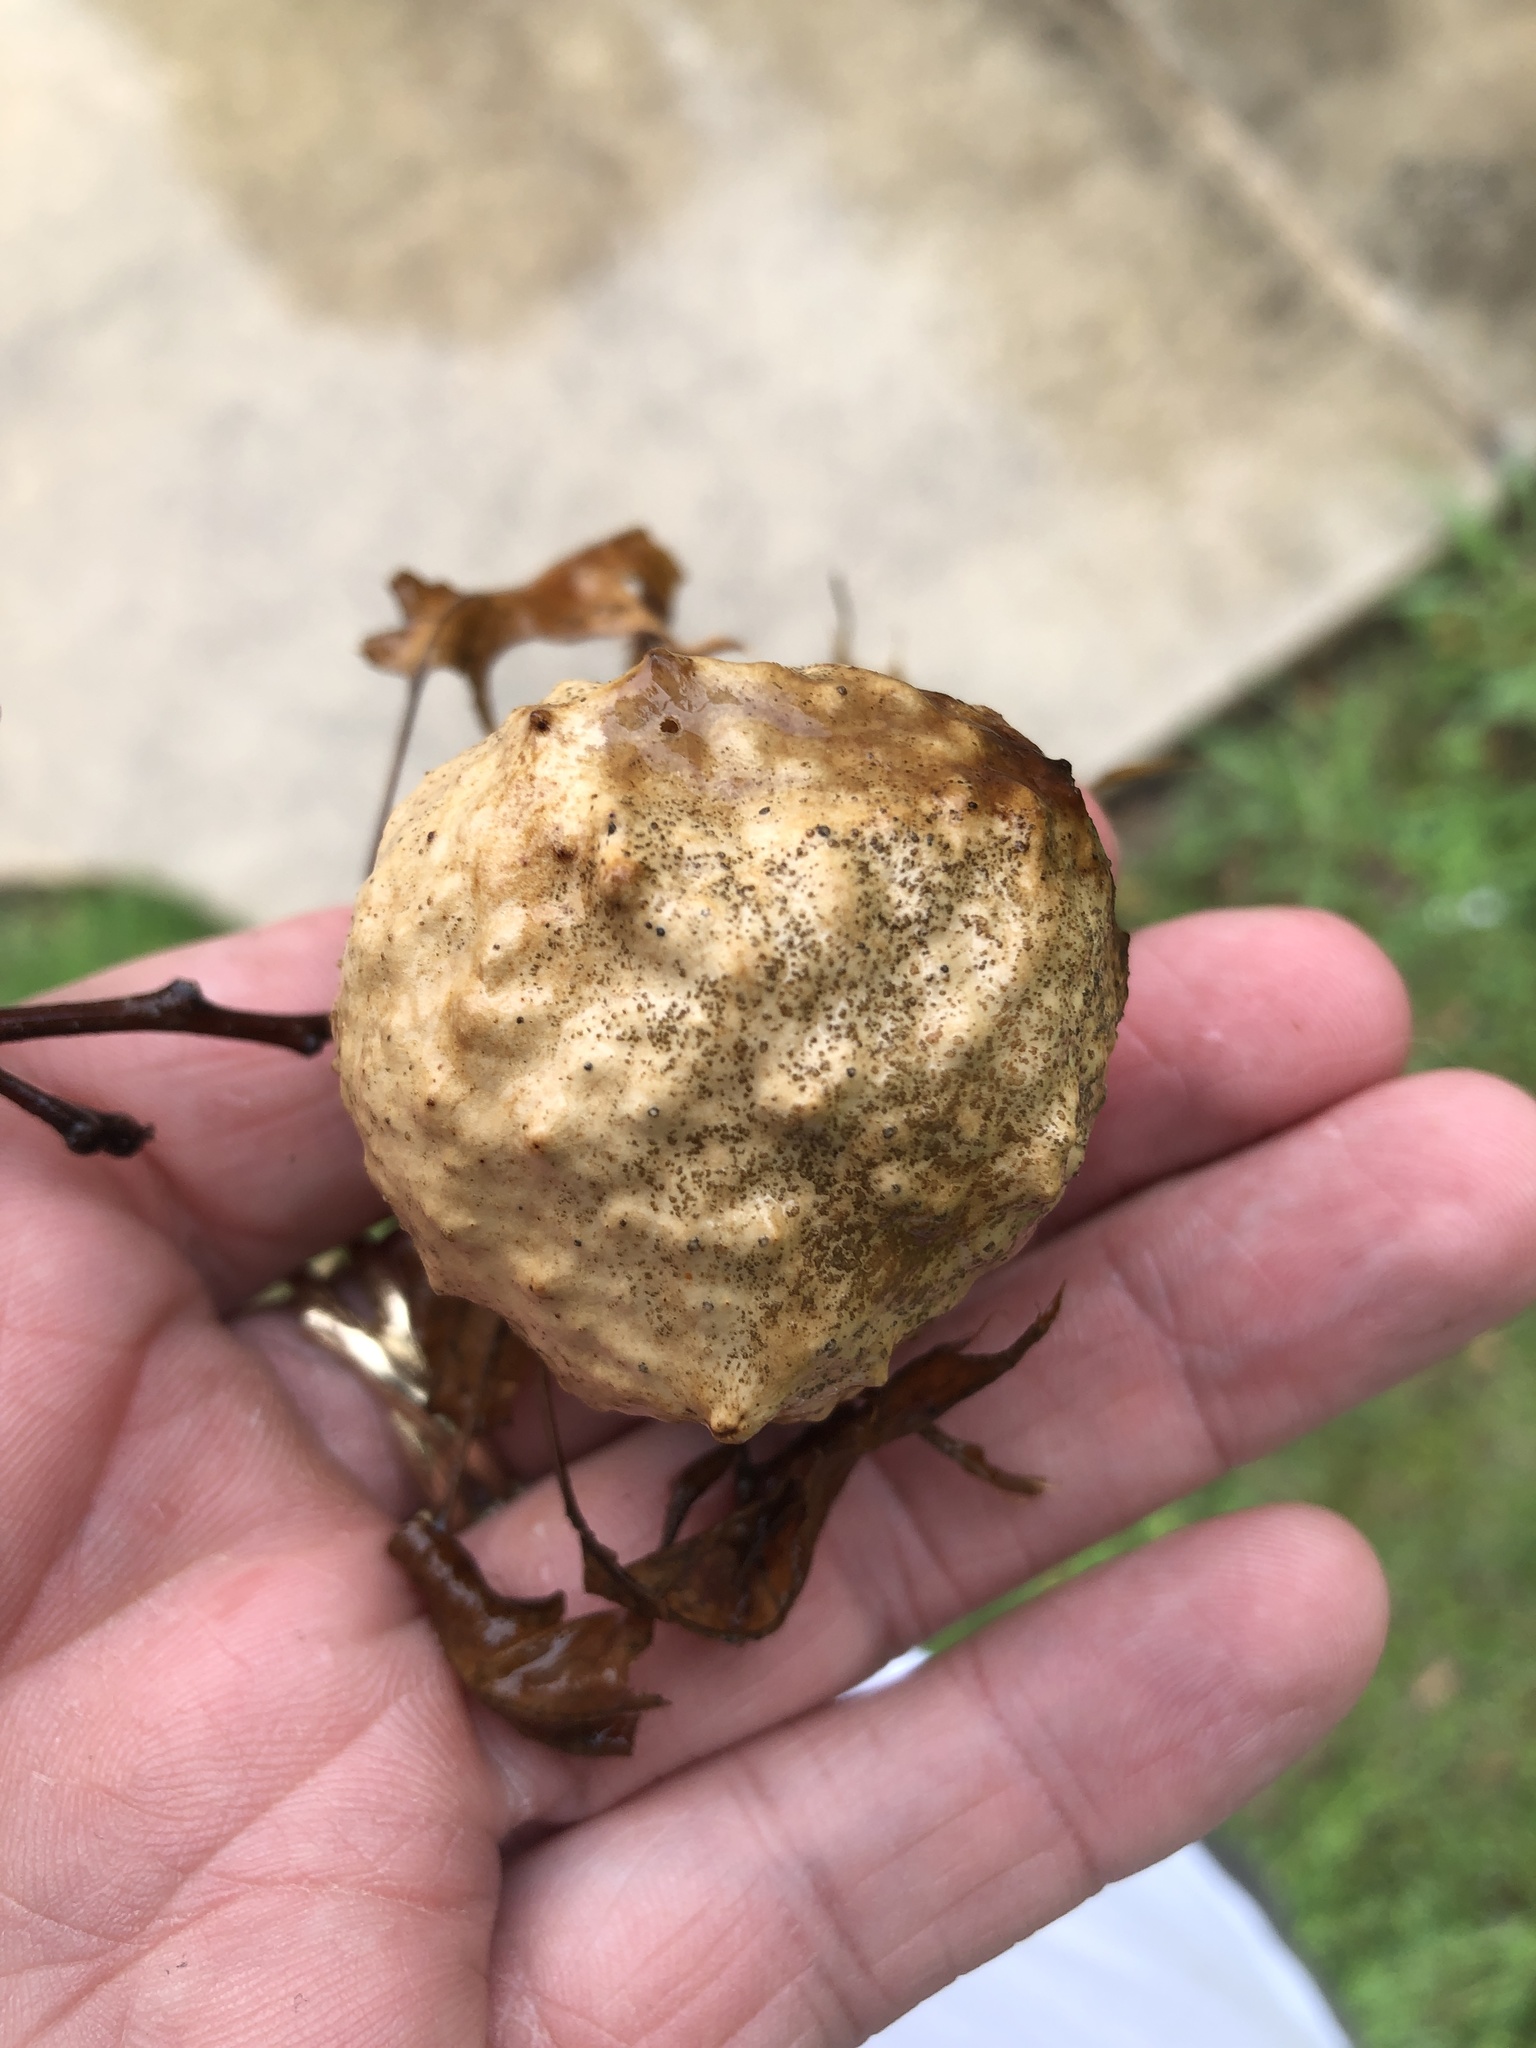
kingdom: Animalia
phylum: Arthropoda
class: Insecta
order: Hymenoptera
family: Cynipidae
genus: Amphibolips
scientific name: Amphibolips
